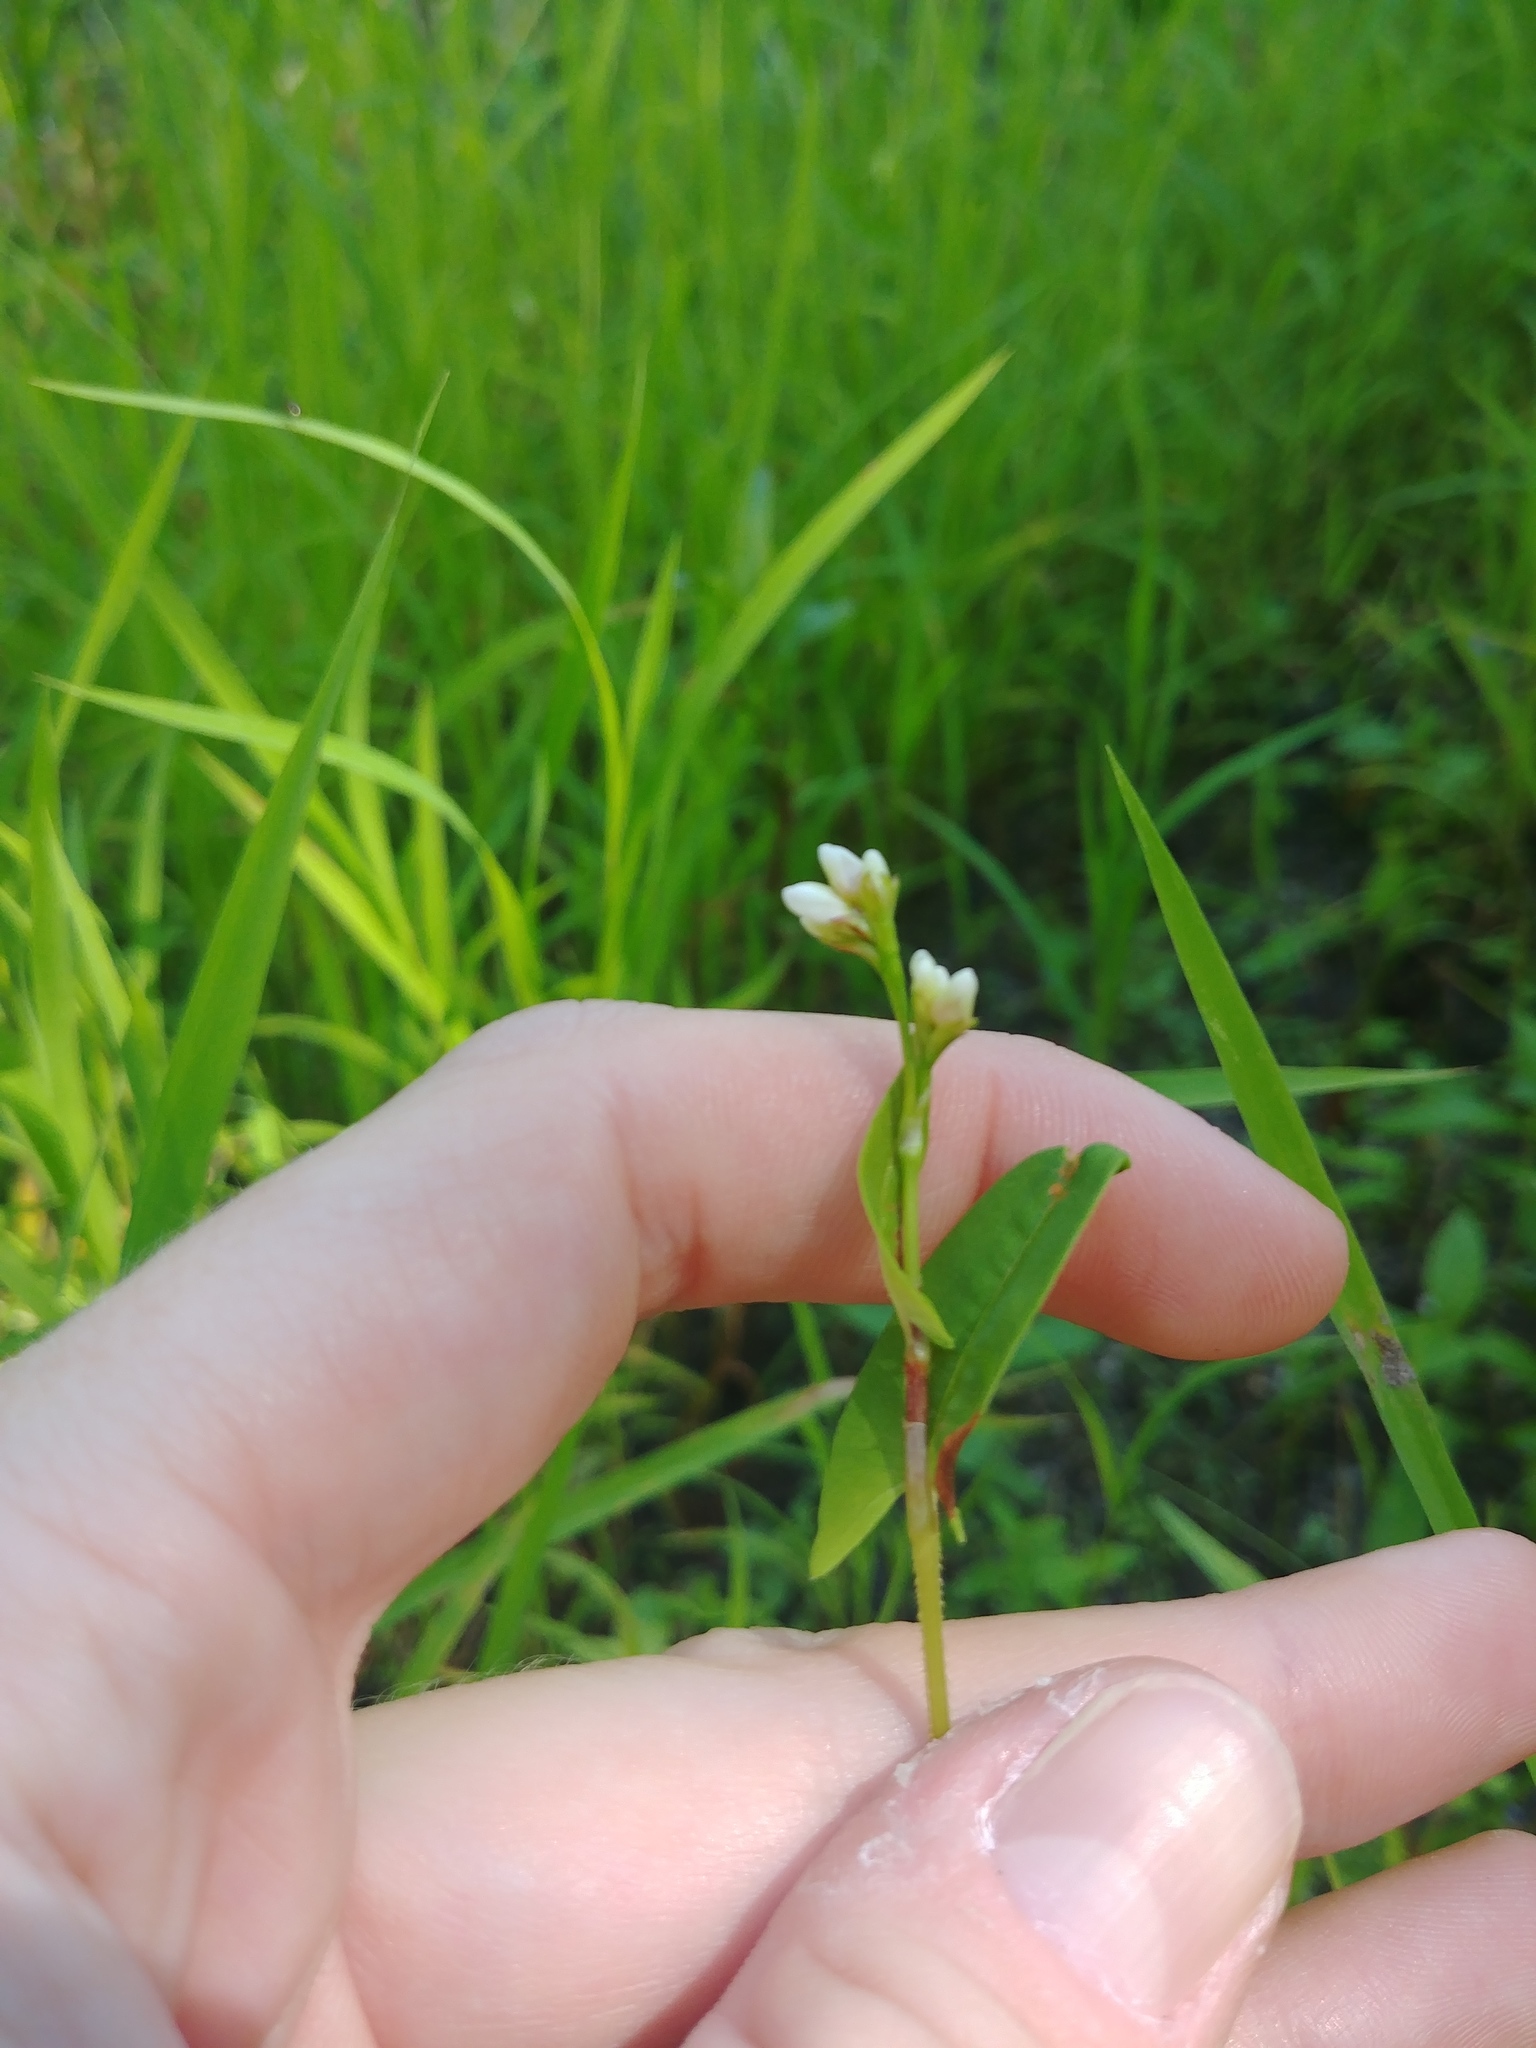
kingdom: Plantae
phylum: Tracheophyta
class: Magnoliopsida
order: Caryophyllales
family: Polygonaceae
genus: Persicaria
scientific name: Persicaria sagittata
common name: American tearthumb
